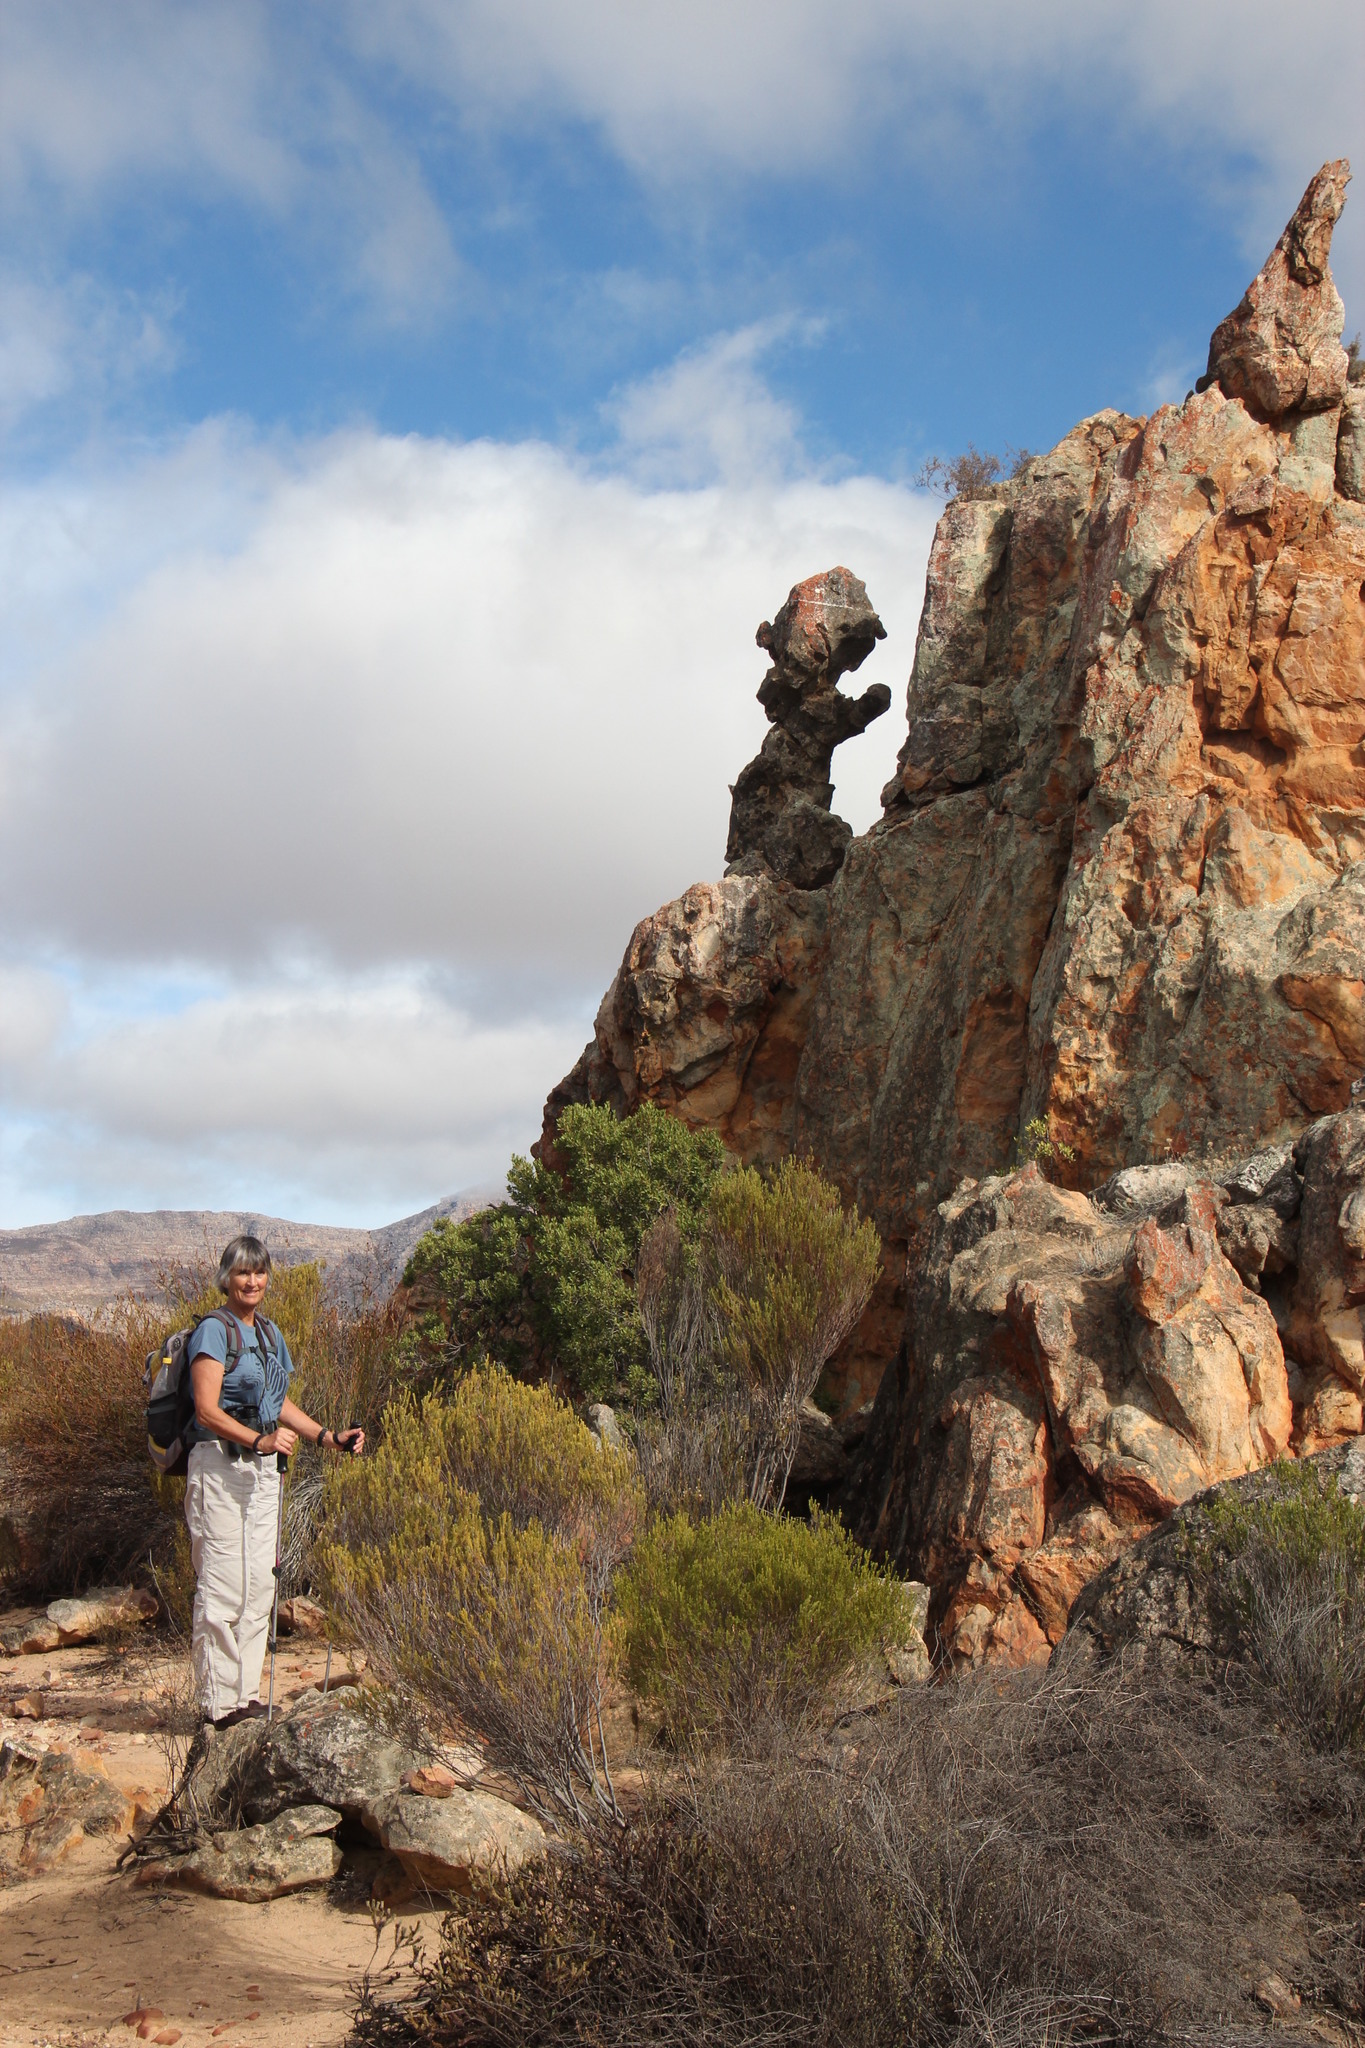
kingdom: Plantae
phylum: Tracheophyta
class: Magnoliopsida
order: Rosales
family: Rhamnaceae
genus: Phylica
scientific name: Phylica rigidifolia
